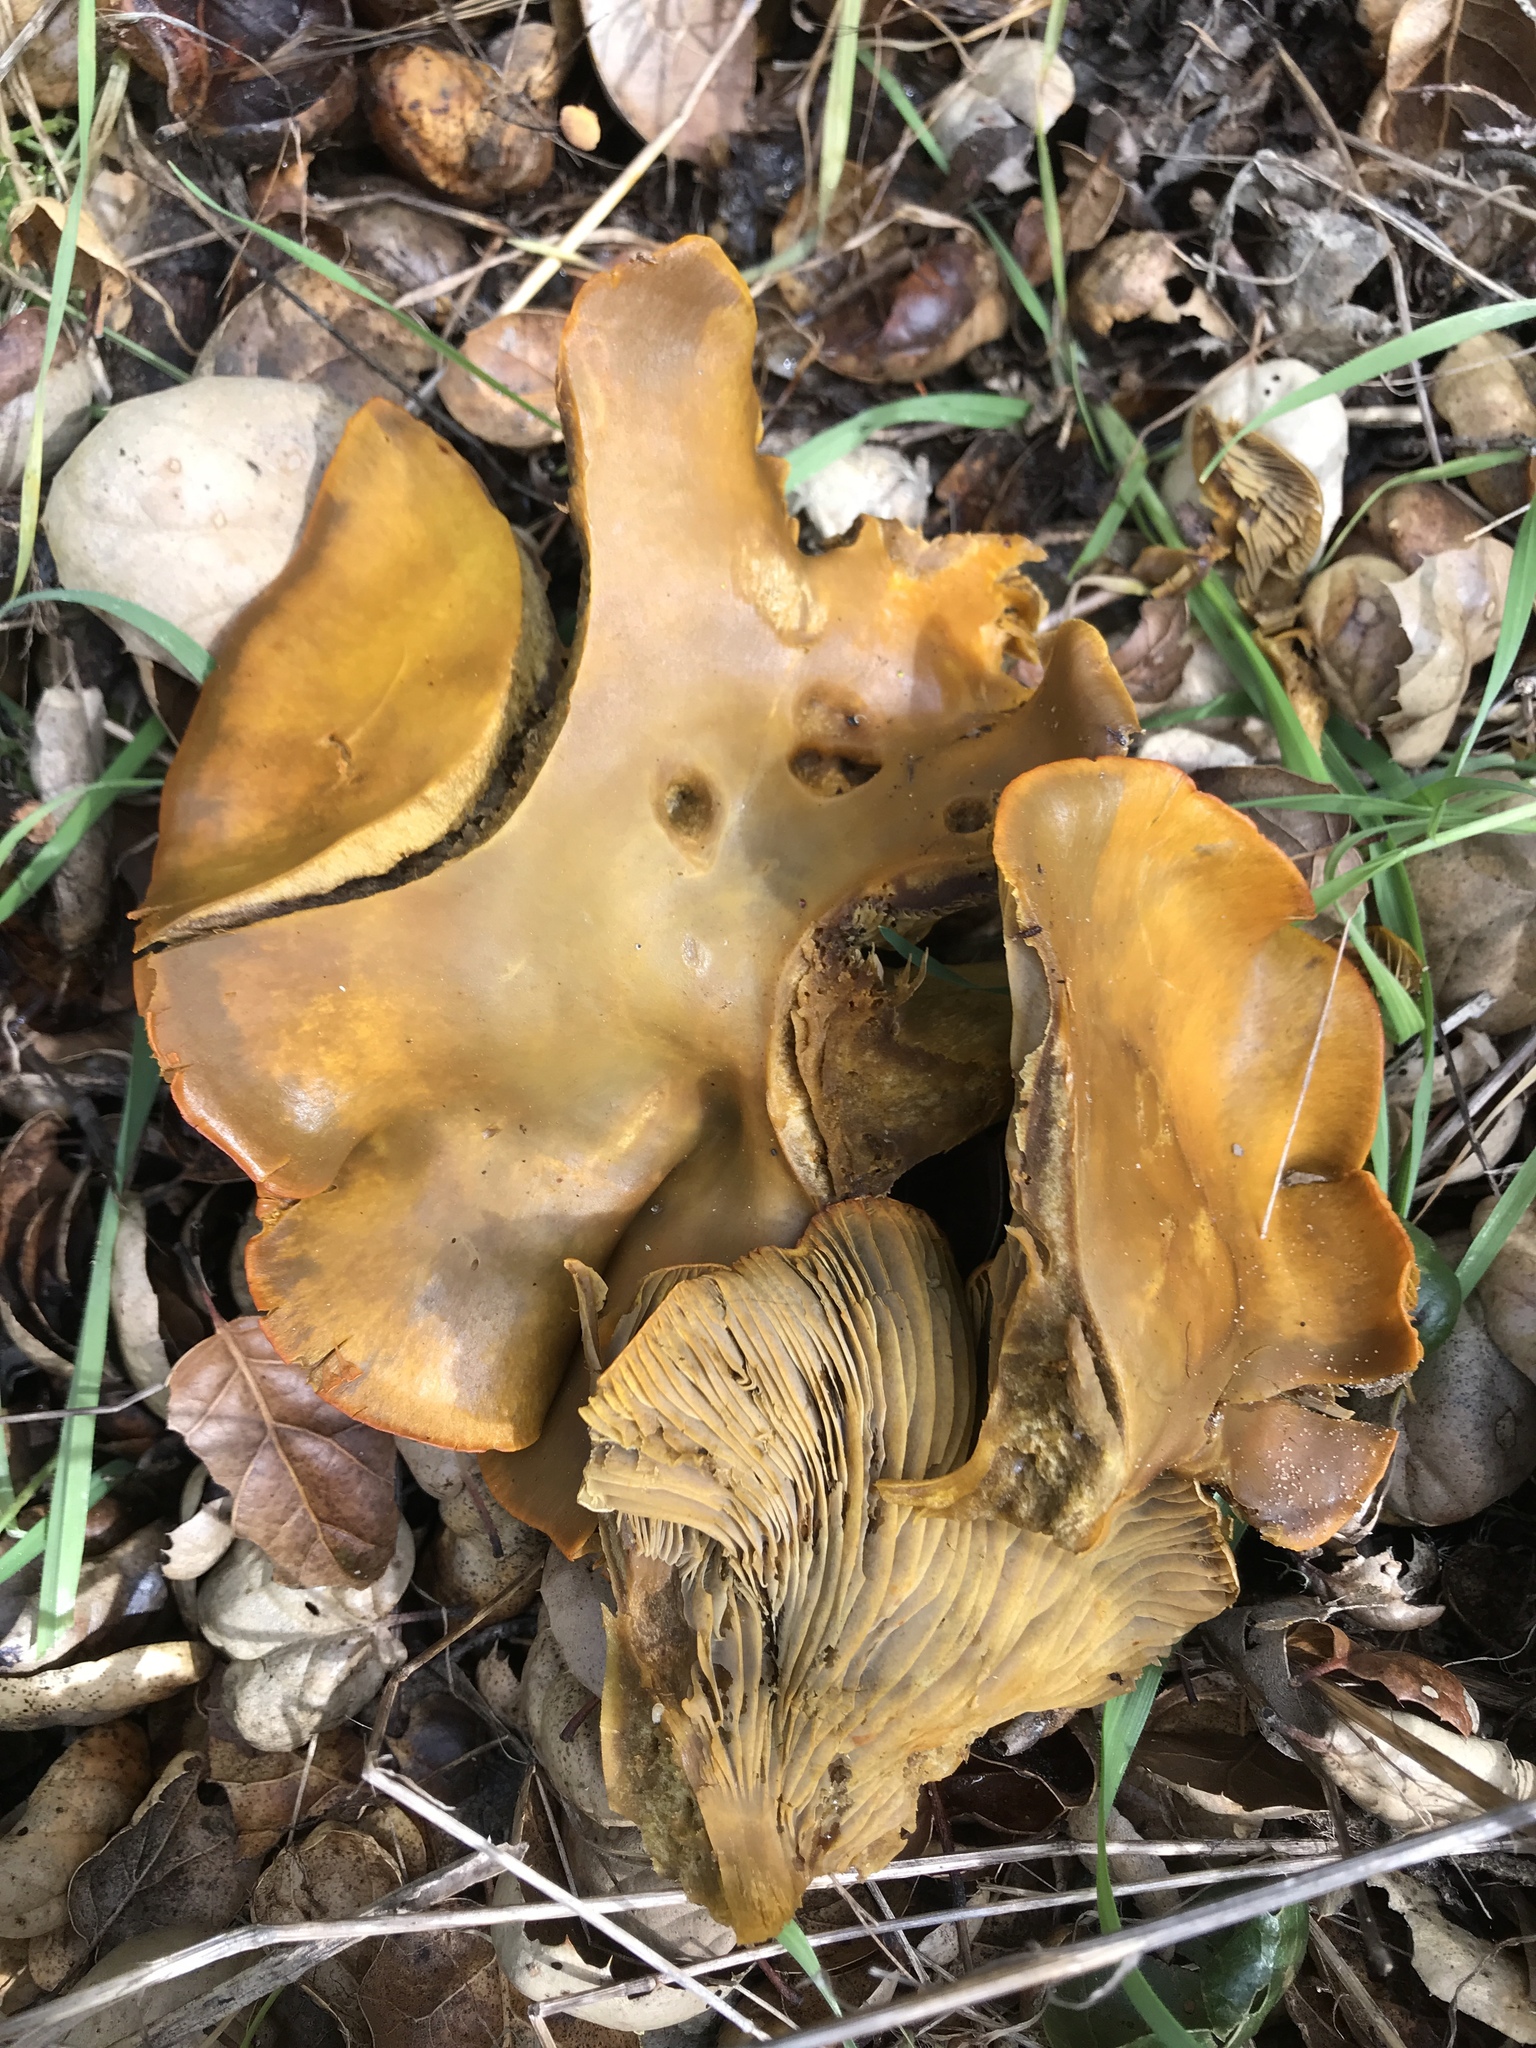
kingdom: Fungi
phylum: Basidiomycota
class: Agaricomycetes
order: Agaricales
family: Omphalotaceae
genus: Omphalotus
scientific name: Omphalotus olivascens
